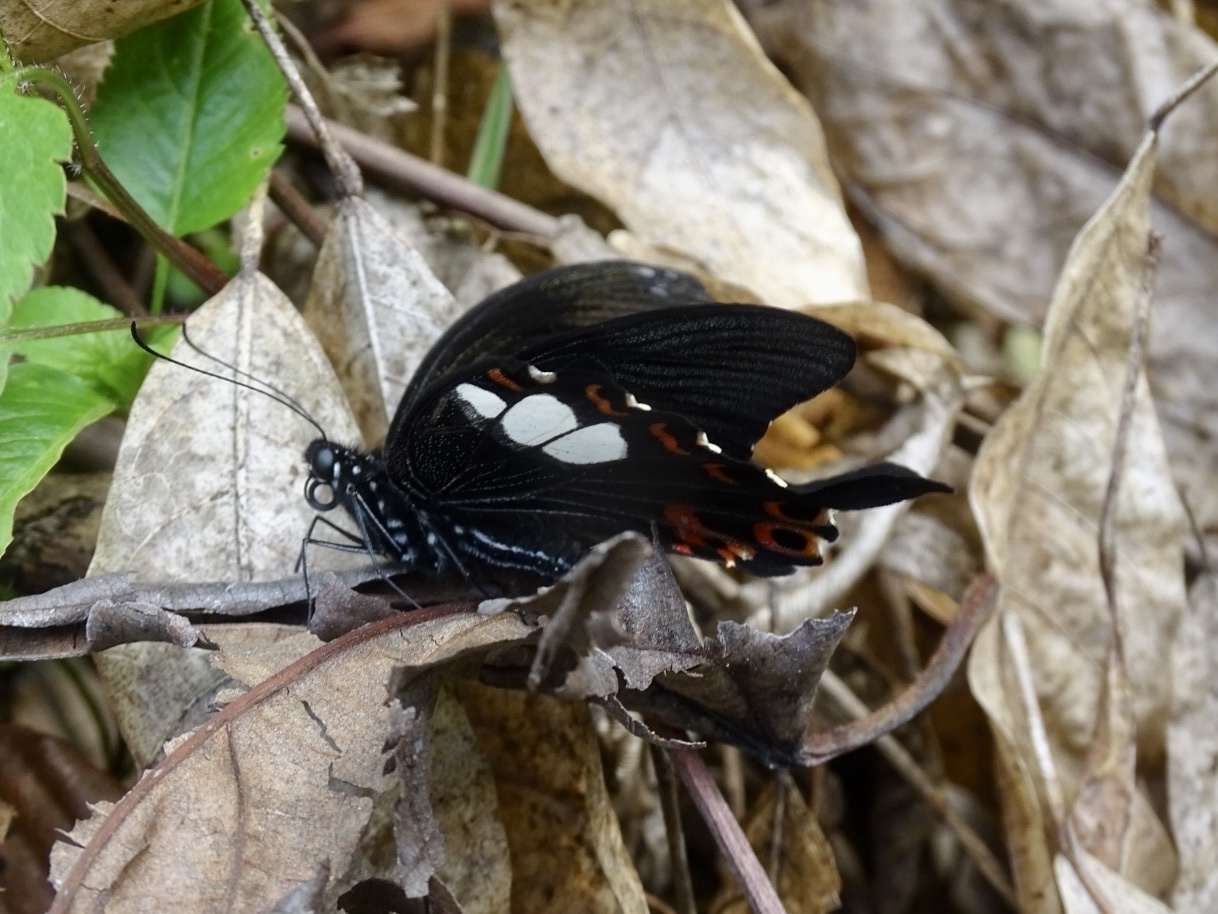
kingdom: Animalia
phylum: Arthropoda
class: Insecta
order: Lepidoptera
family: Papilionidae
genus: Papilio
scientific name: Papilio helenus
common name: Red helen
